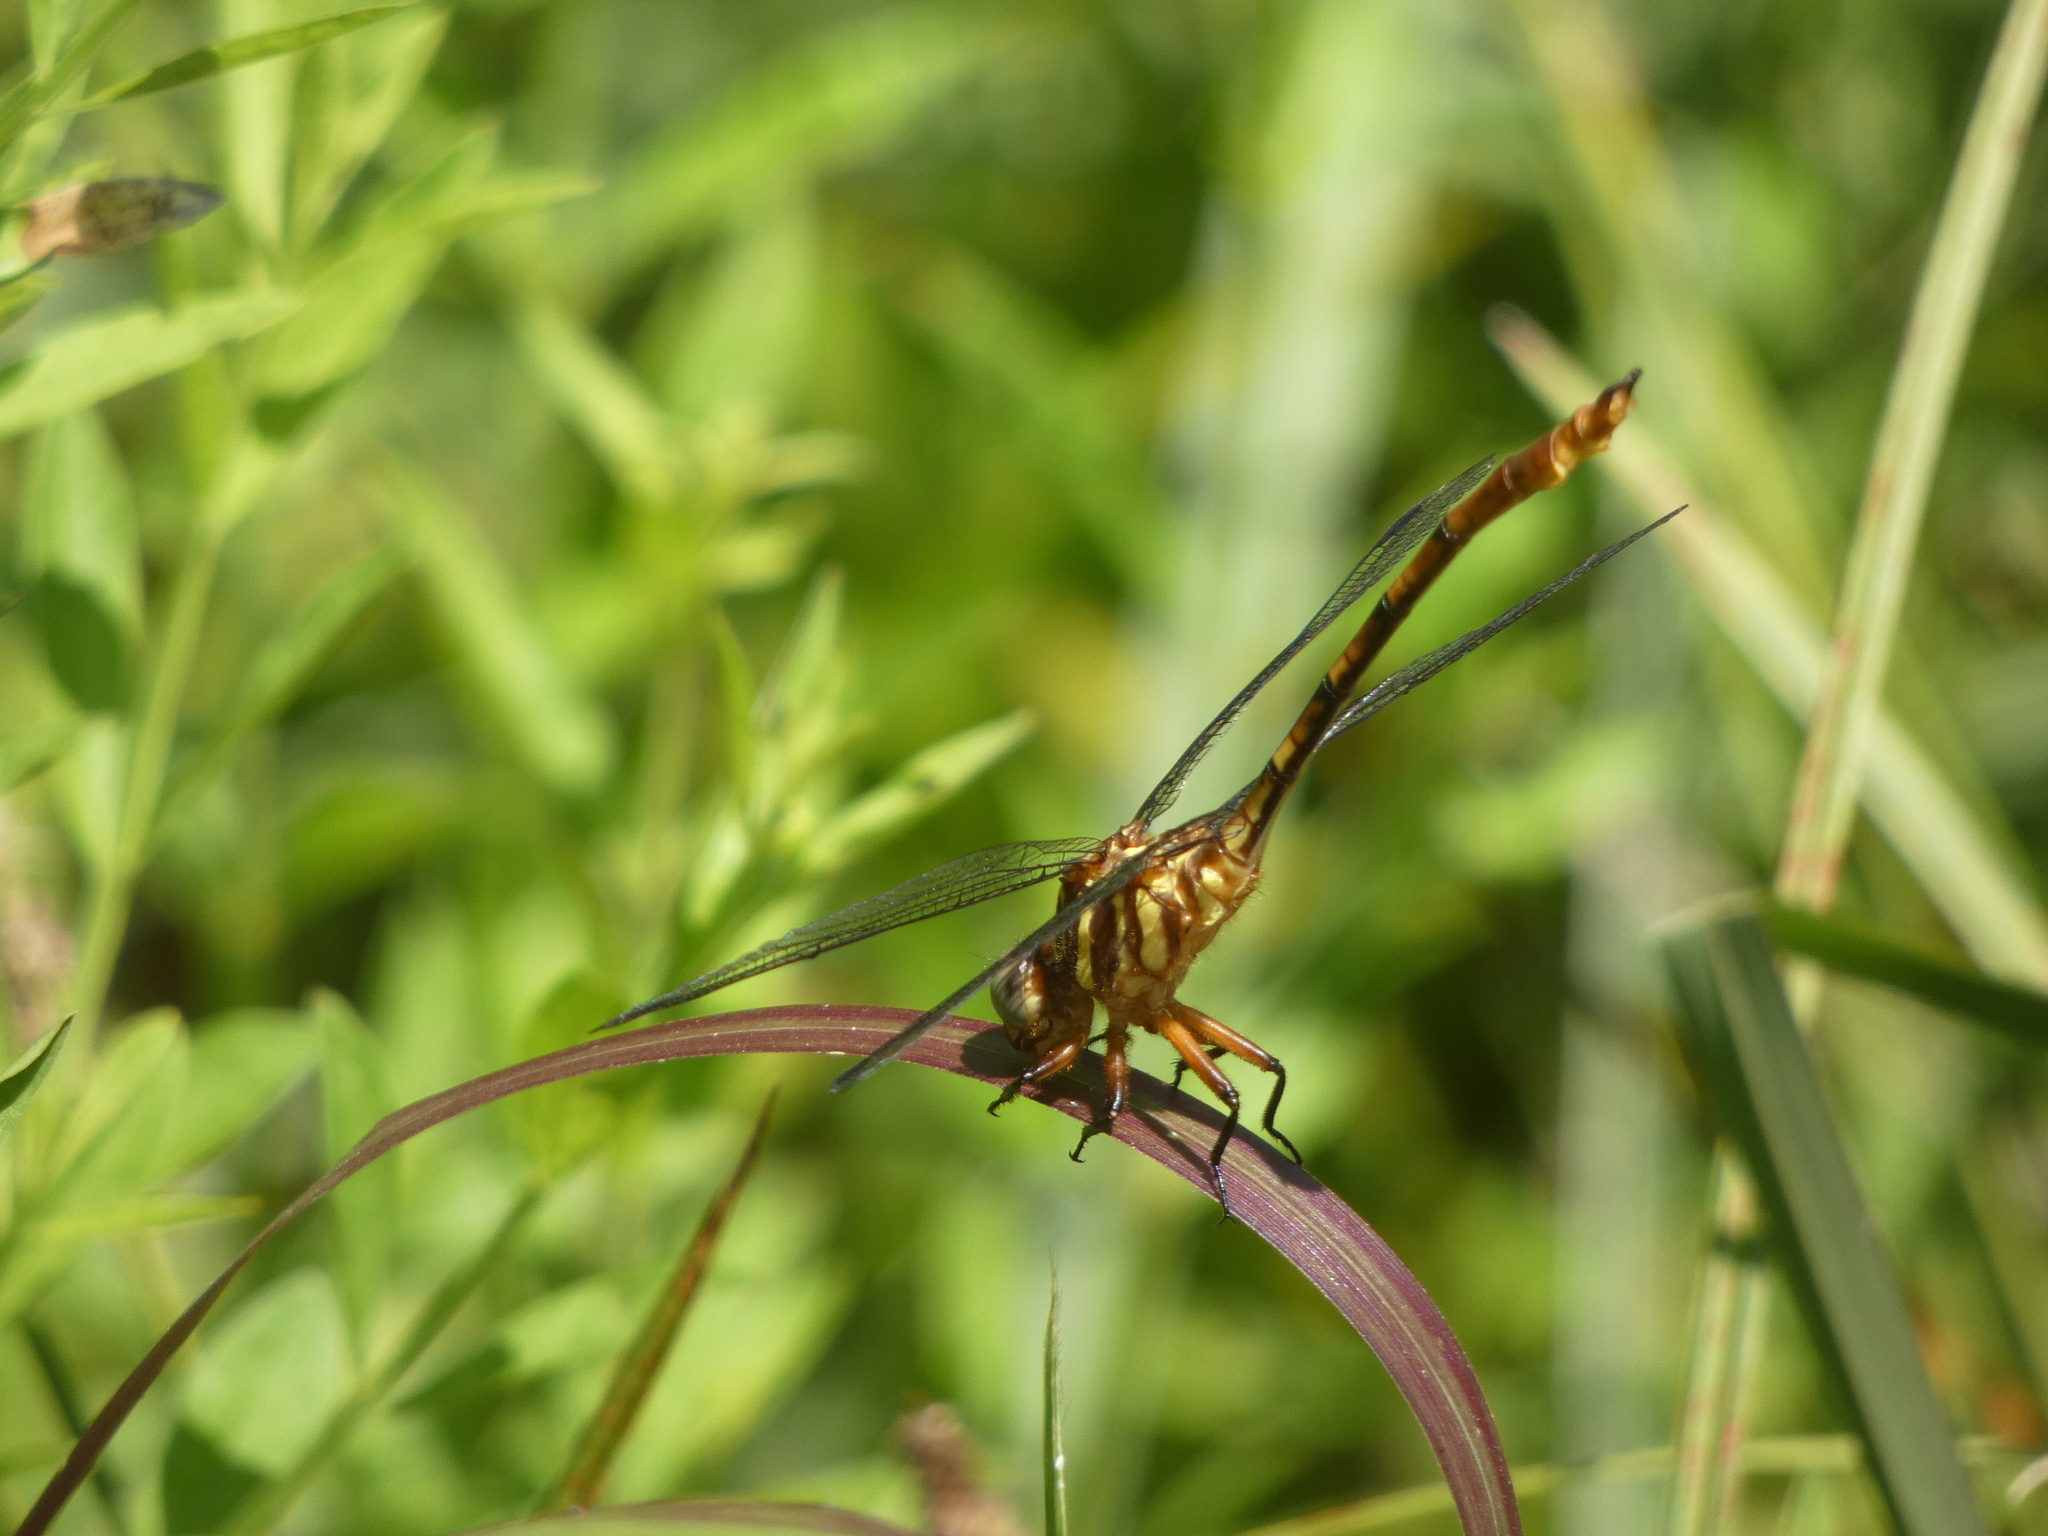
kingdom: Animalia
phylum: Arthropoda
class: Insecta
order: Odonata
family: Gomphidae
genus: Aphylla
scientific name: Aphylla angustifolia
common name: Broad-striped forceptail
